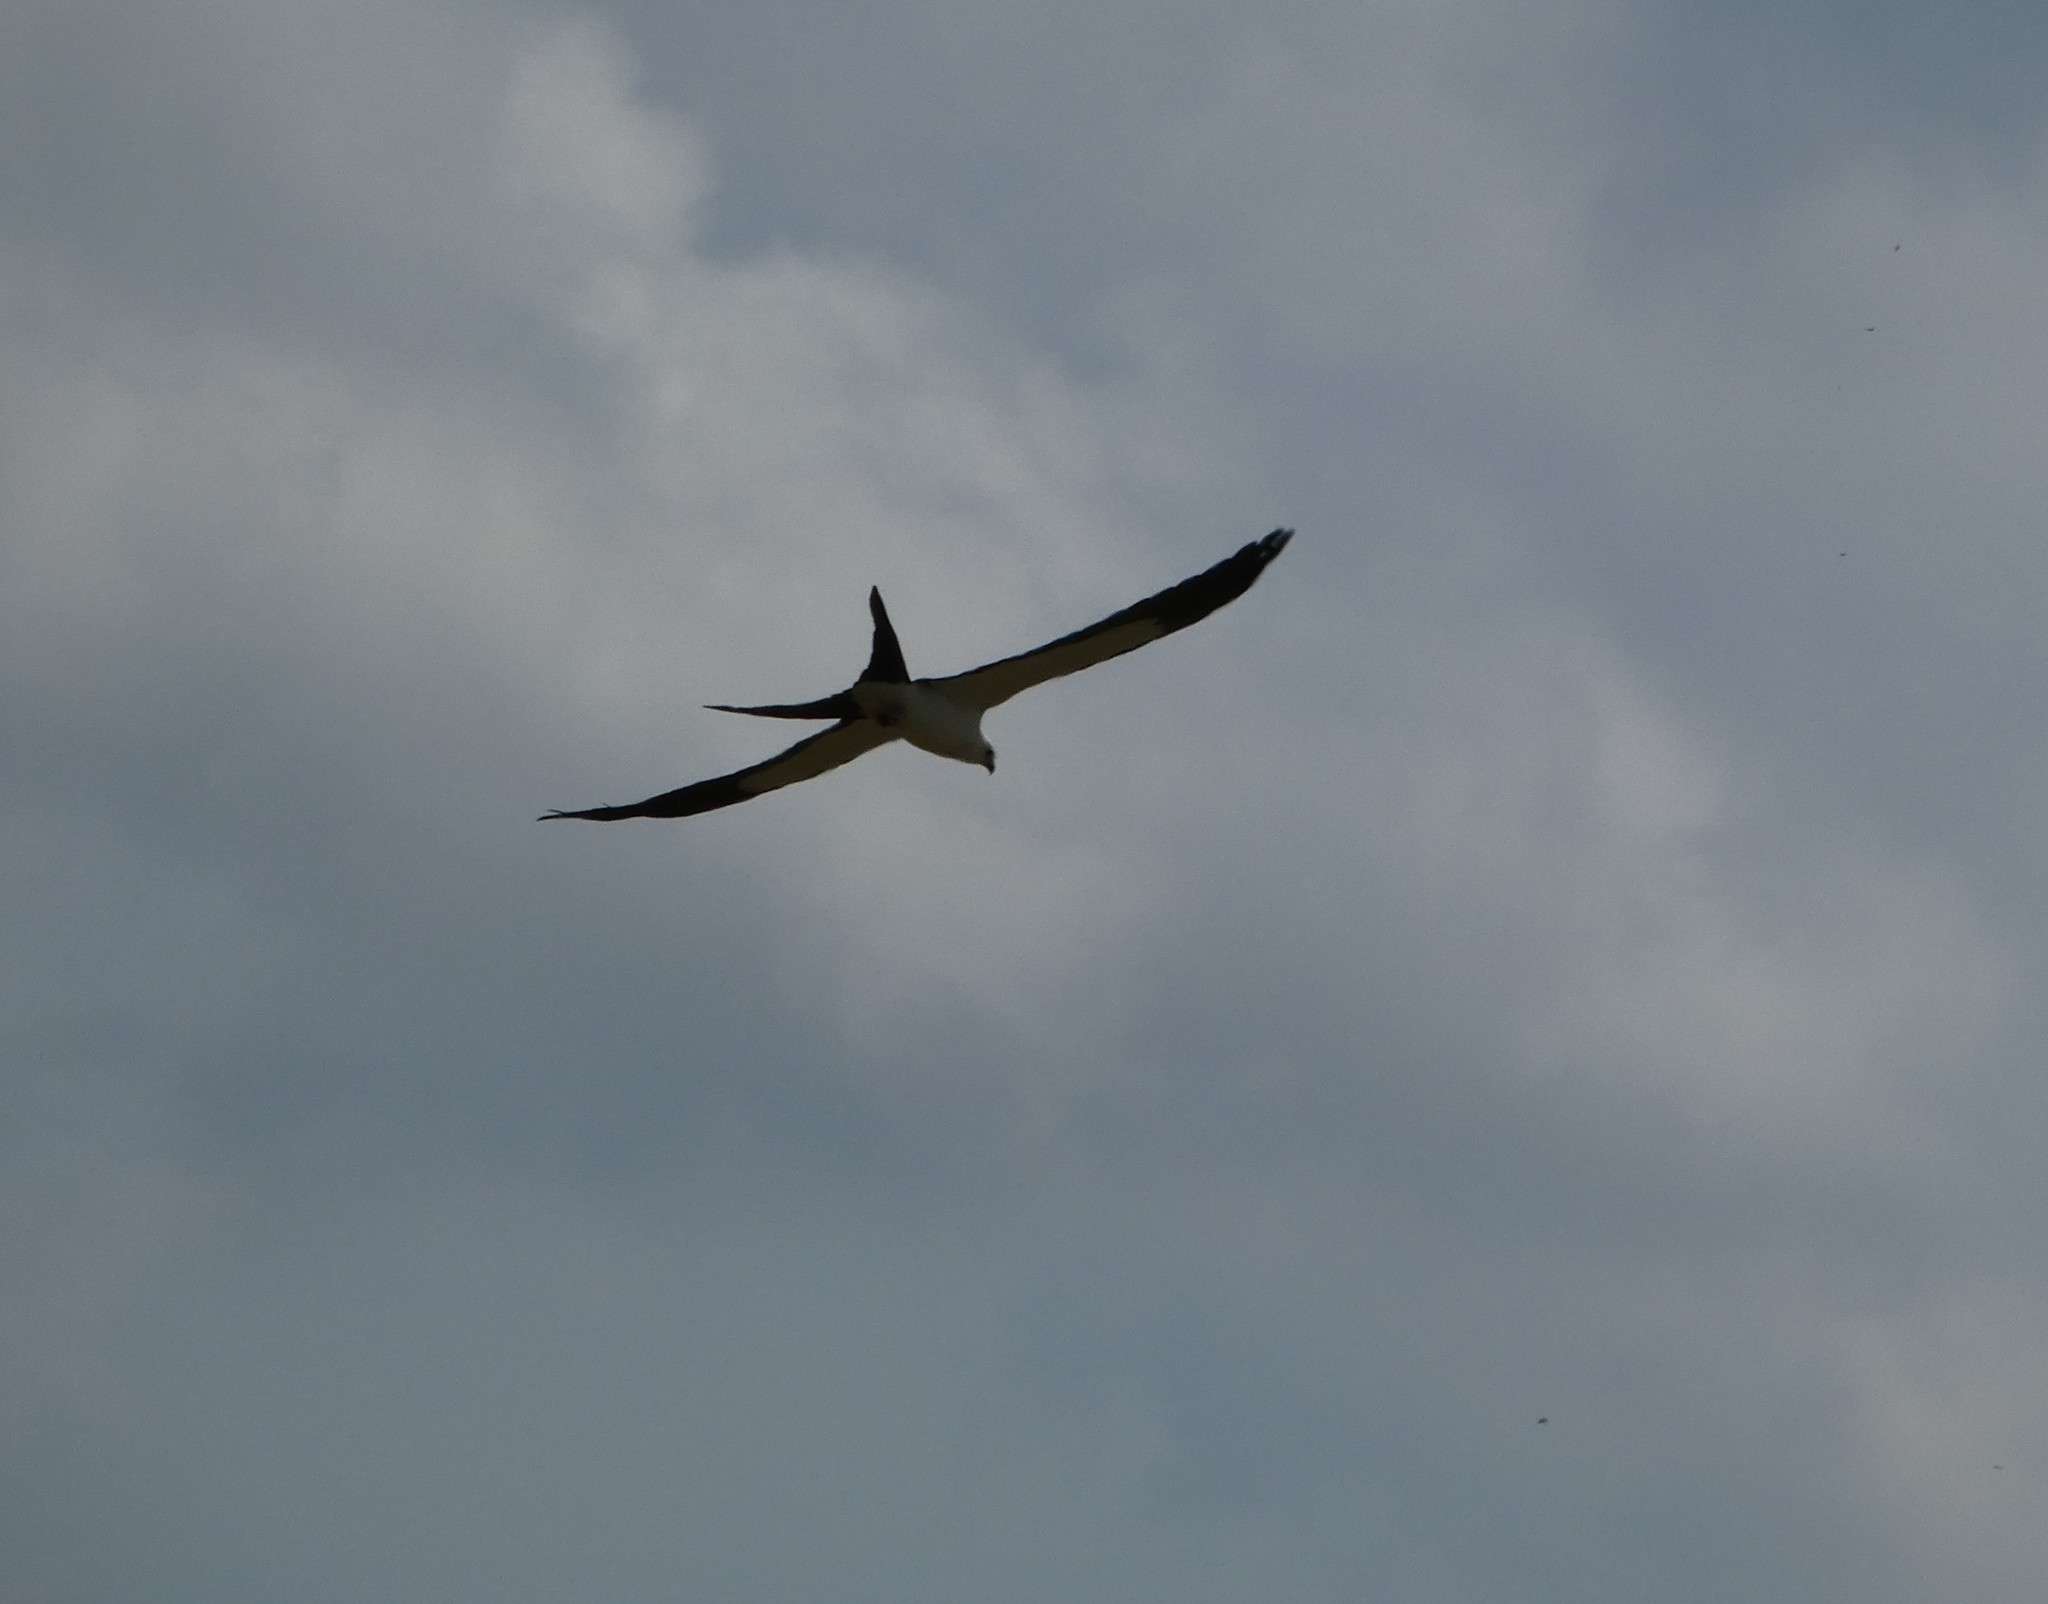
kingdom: Animalia
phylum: Chordata
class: Aves
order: Accipitriformes
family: Accipitridae
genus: Elanoides
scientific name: Elanoides forficatus
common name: Swallow-tailed kite
